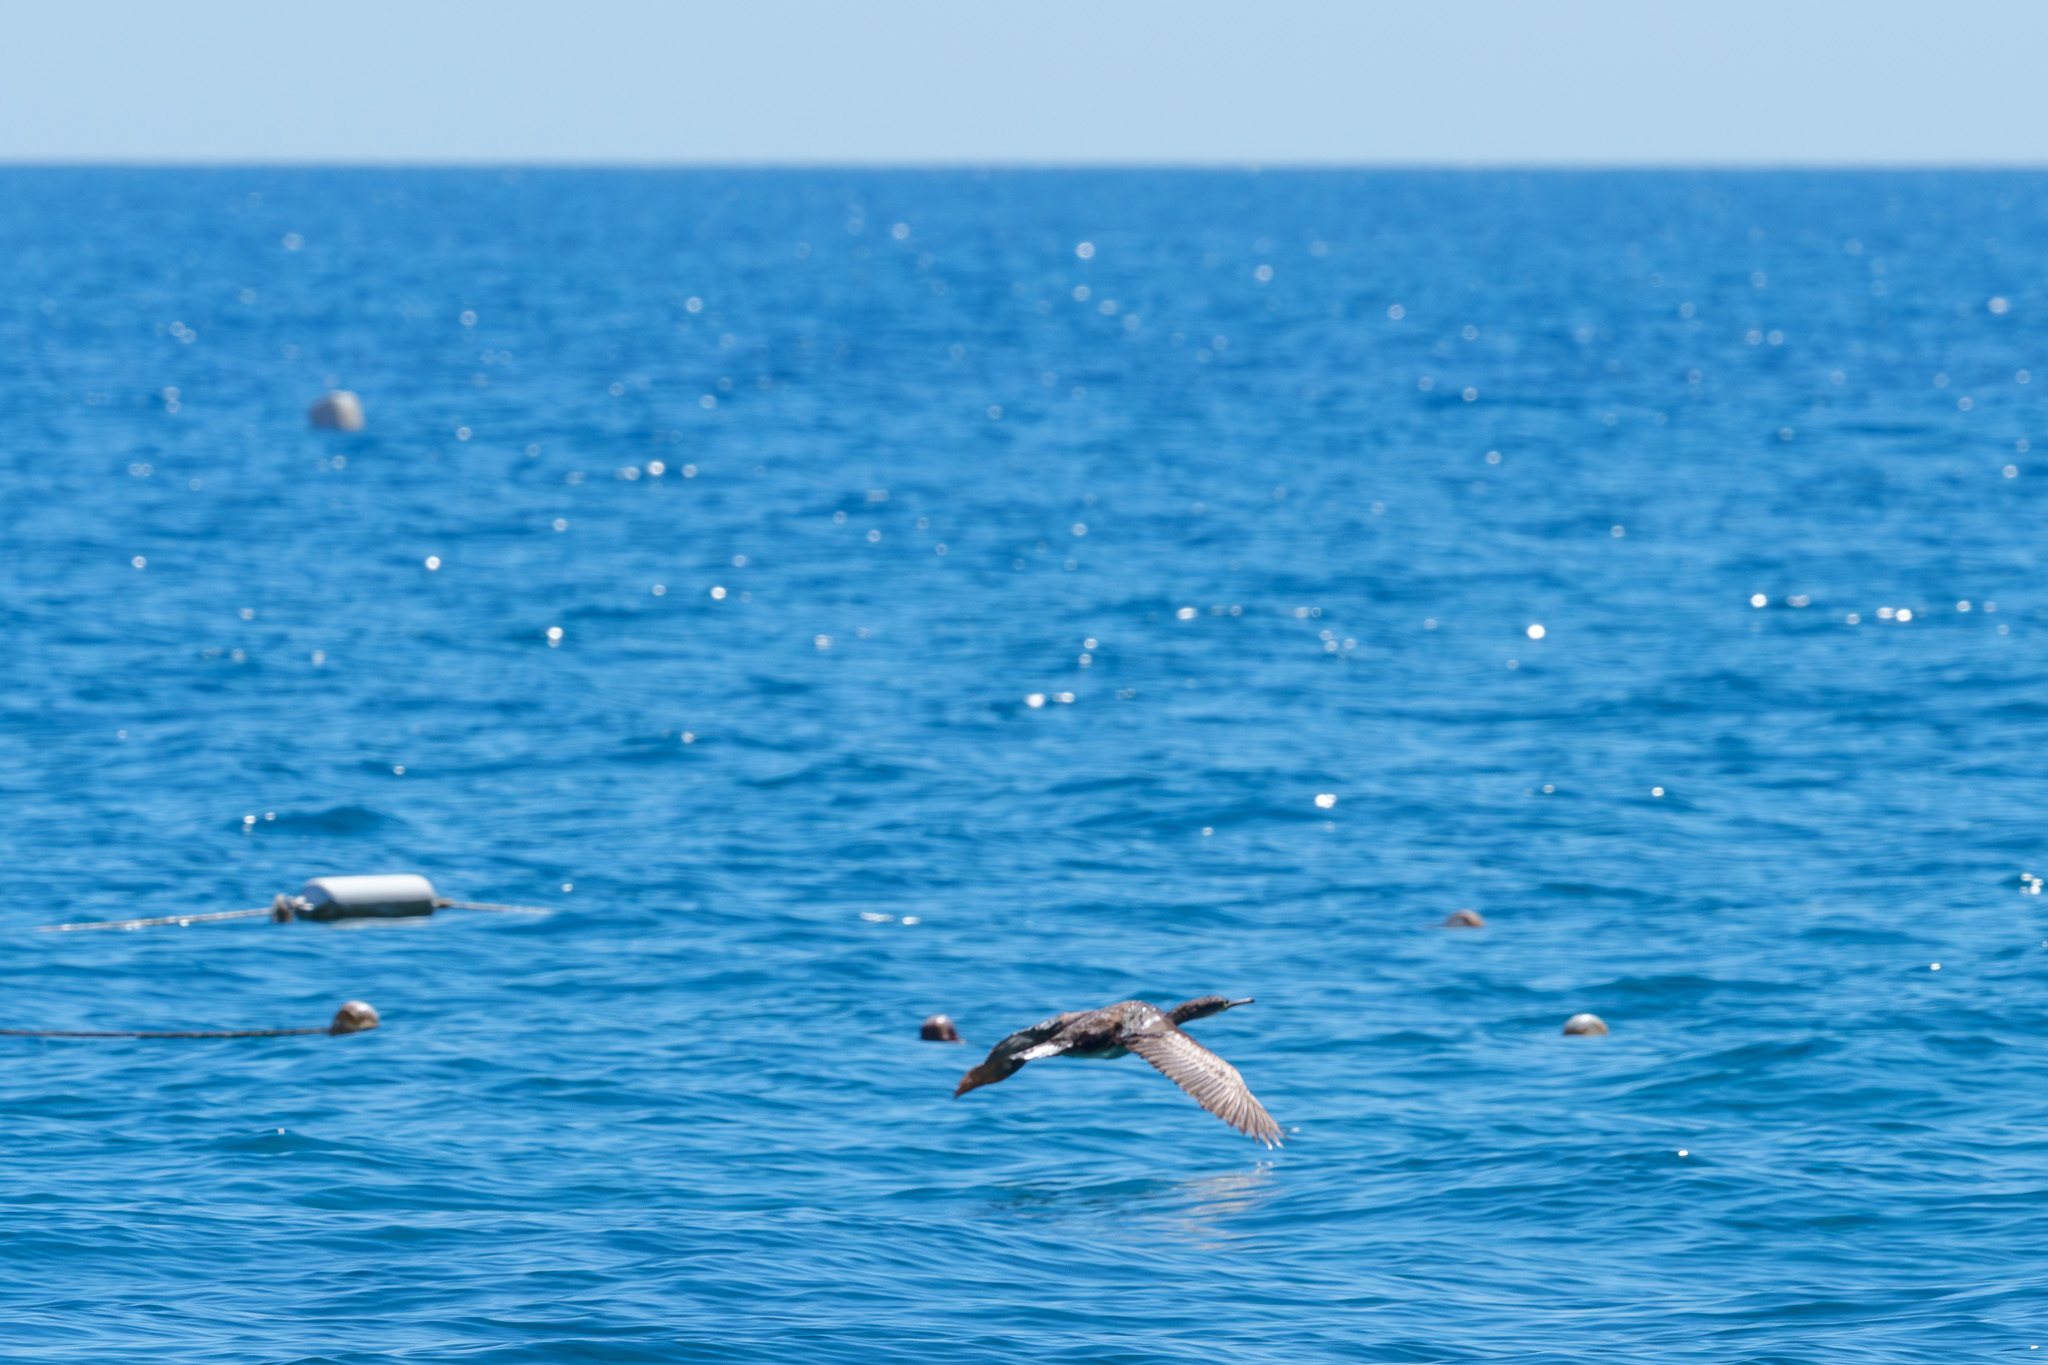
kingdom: Animalia
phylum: Chordata
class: Aves
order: Suliformes
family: Phalacrocoracidae
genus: Phalacrocorax
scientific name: Phalacrocorax aristotelis
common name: European shag
